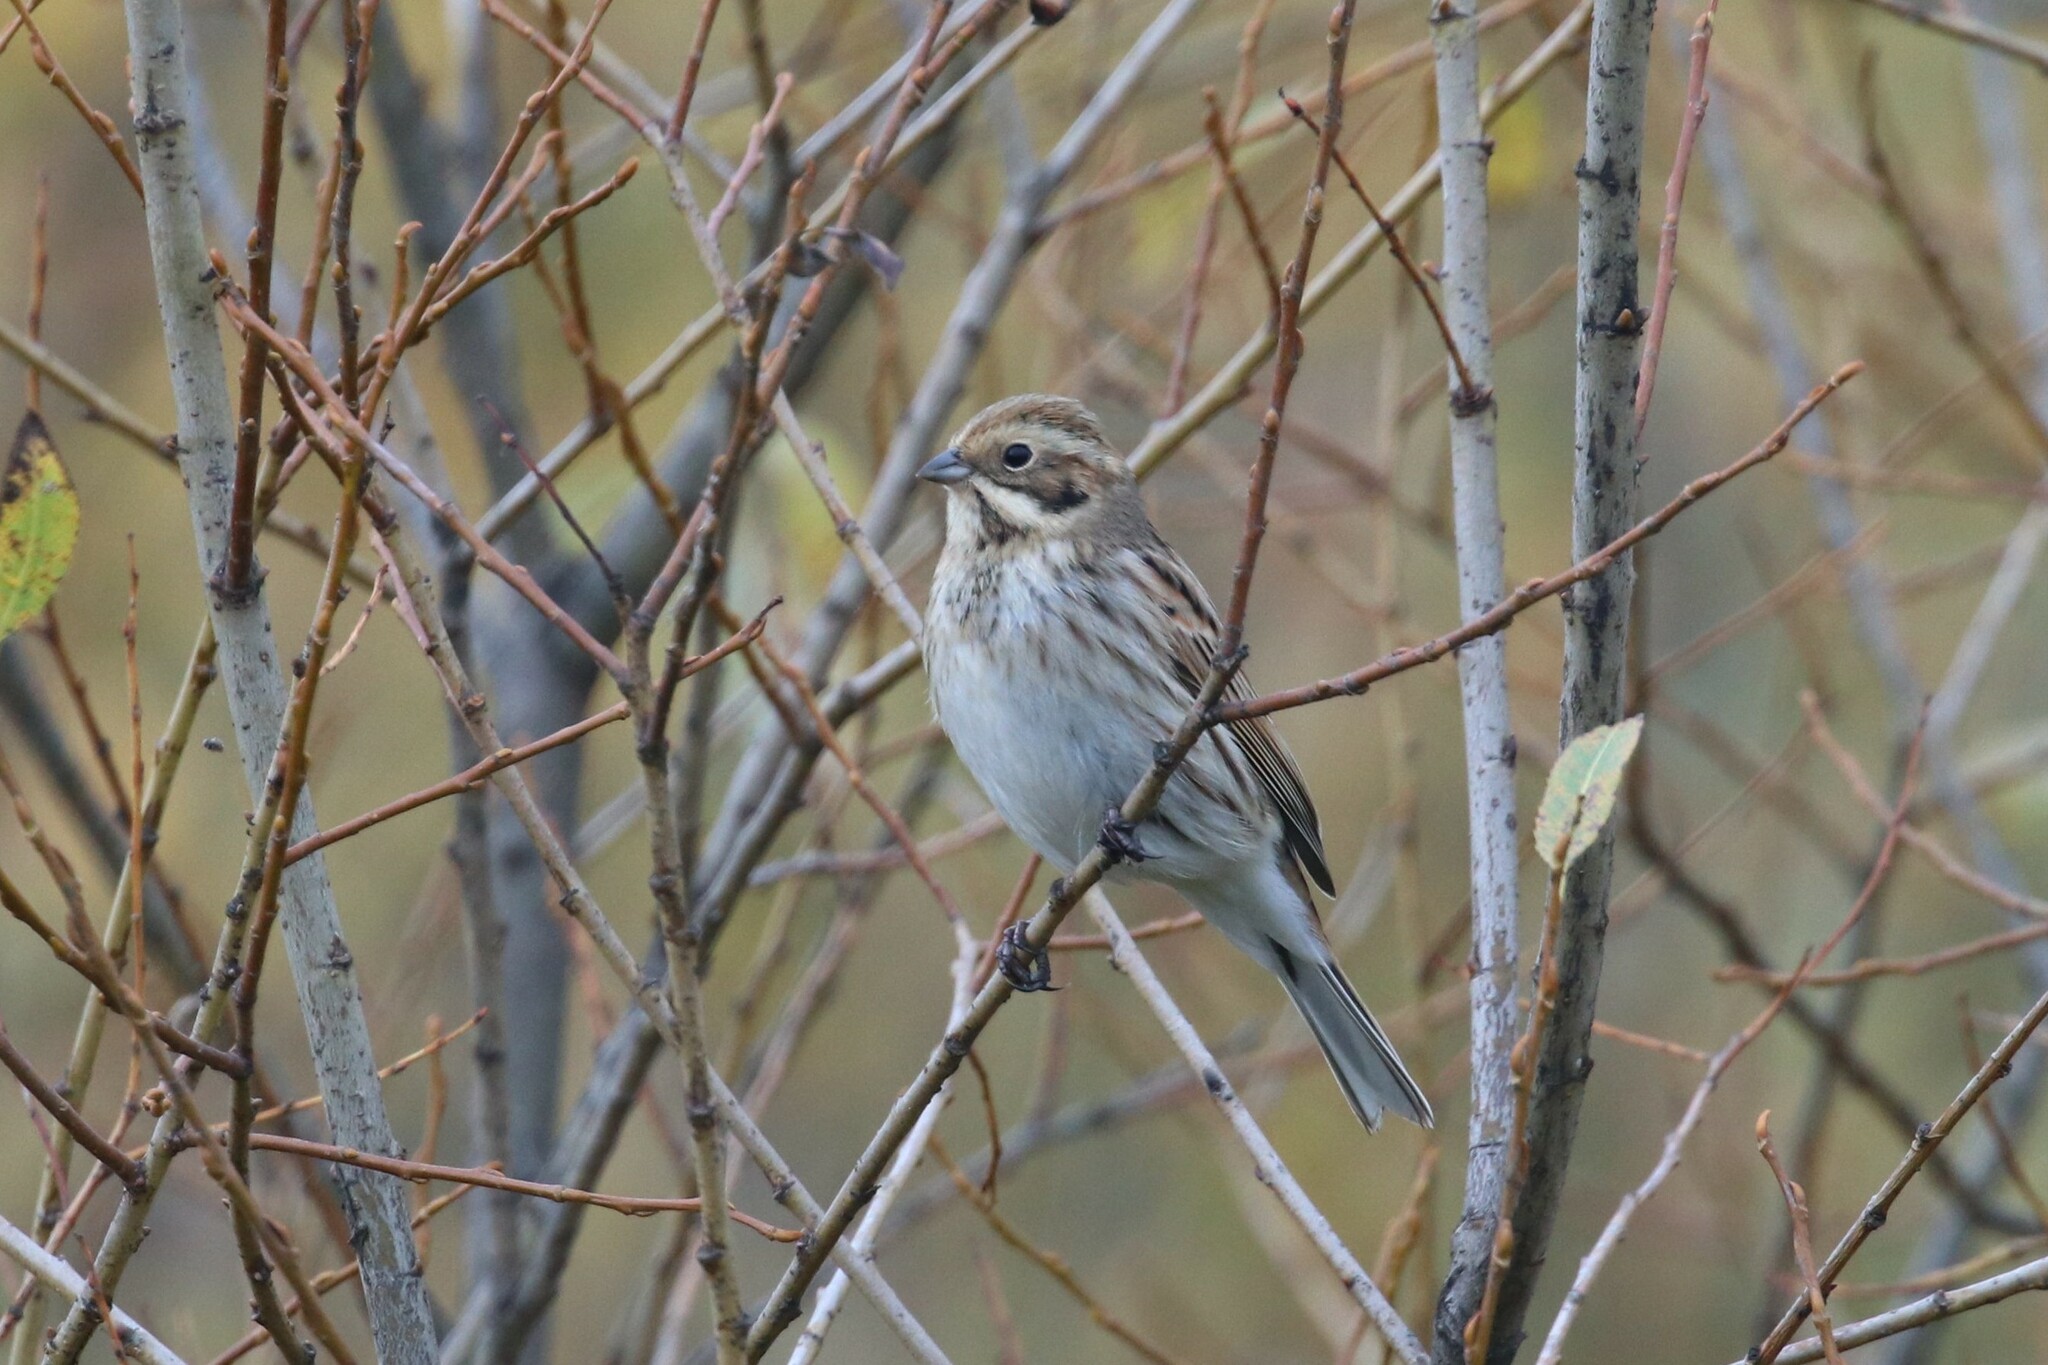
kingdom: Animalia
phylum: Chordata
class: Aves
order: Passeriformes
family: Emberizidae
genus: Emberiza
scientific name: Emberiza schoeniclus
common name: Reed bunting
